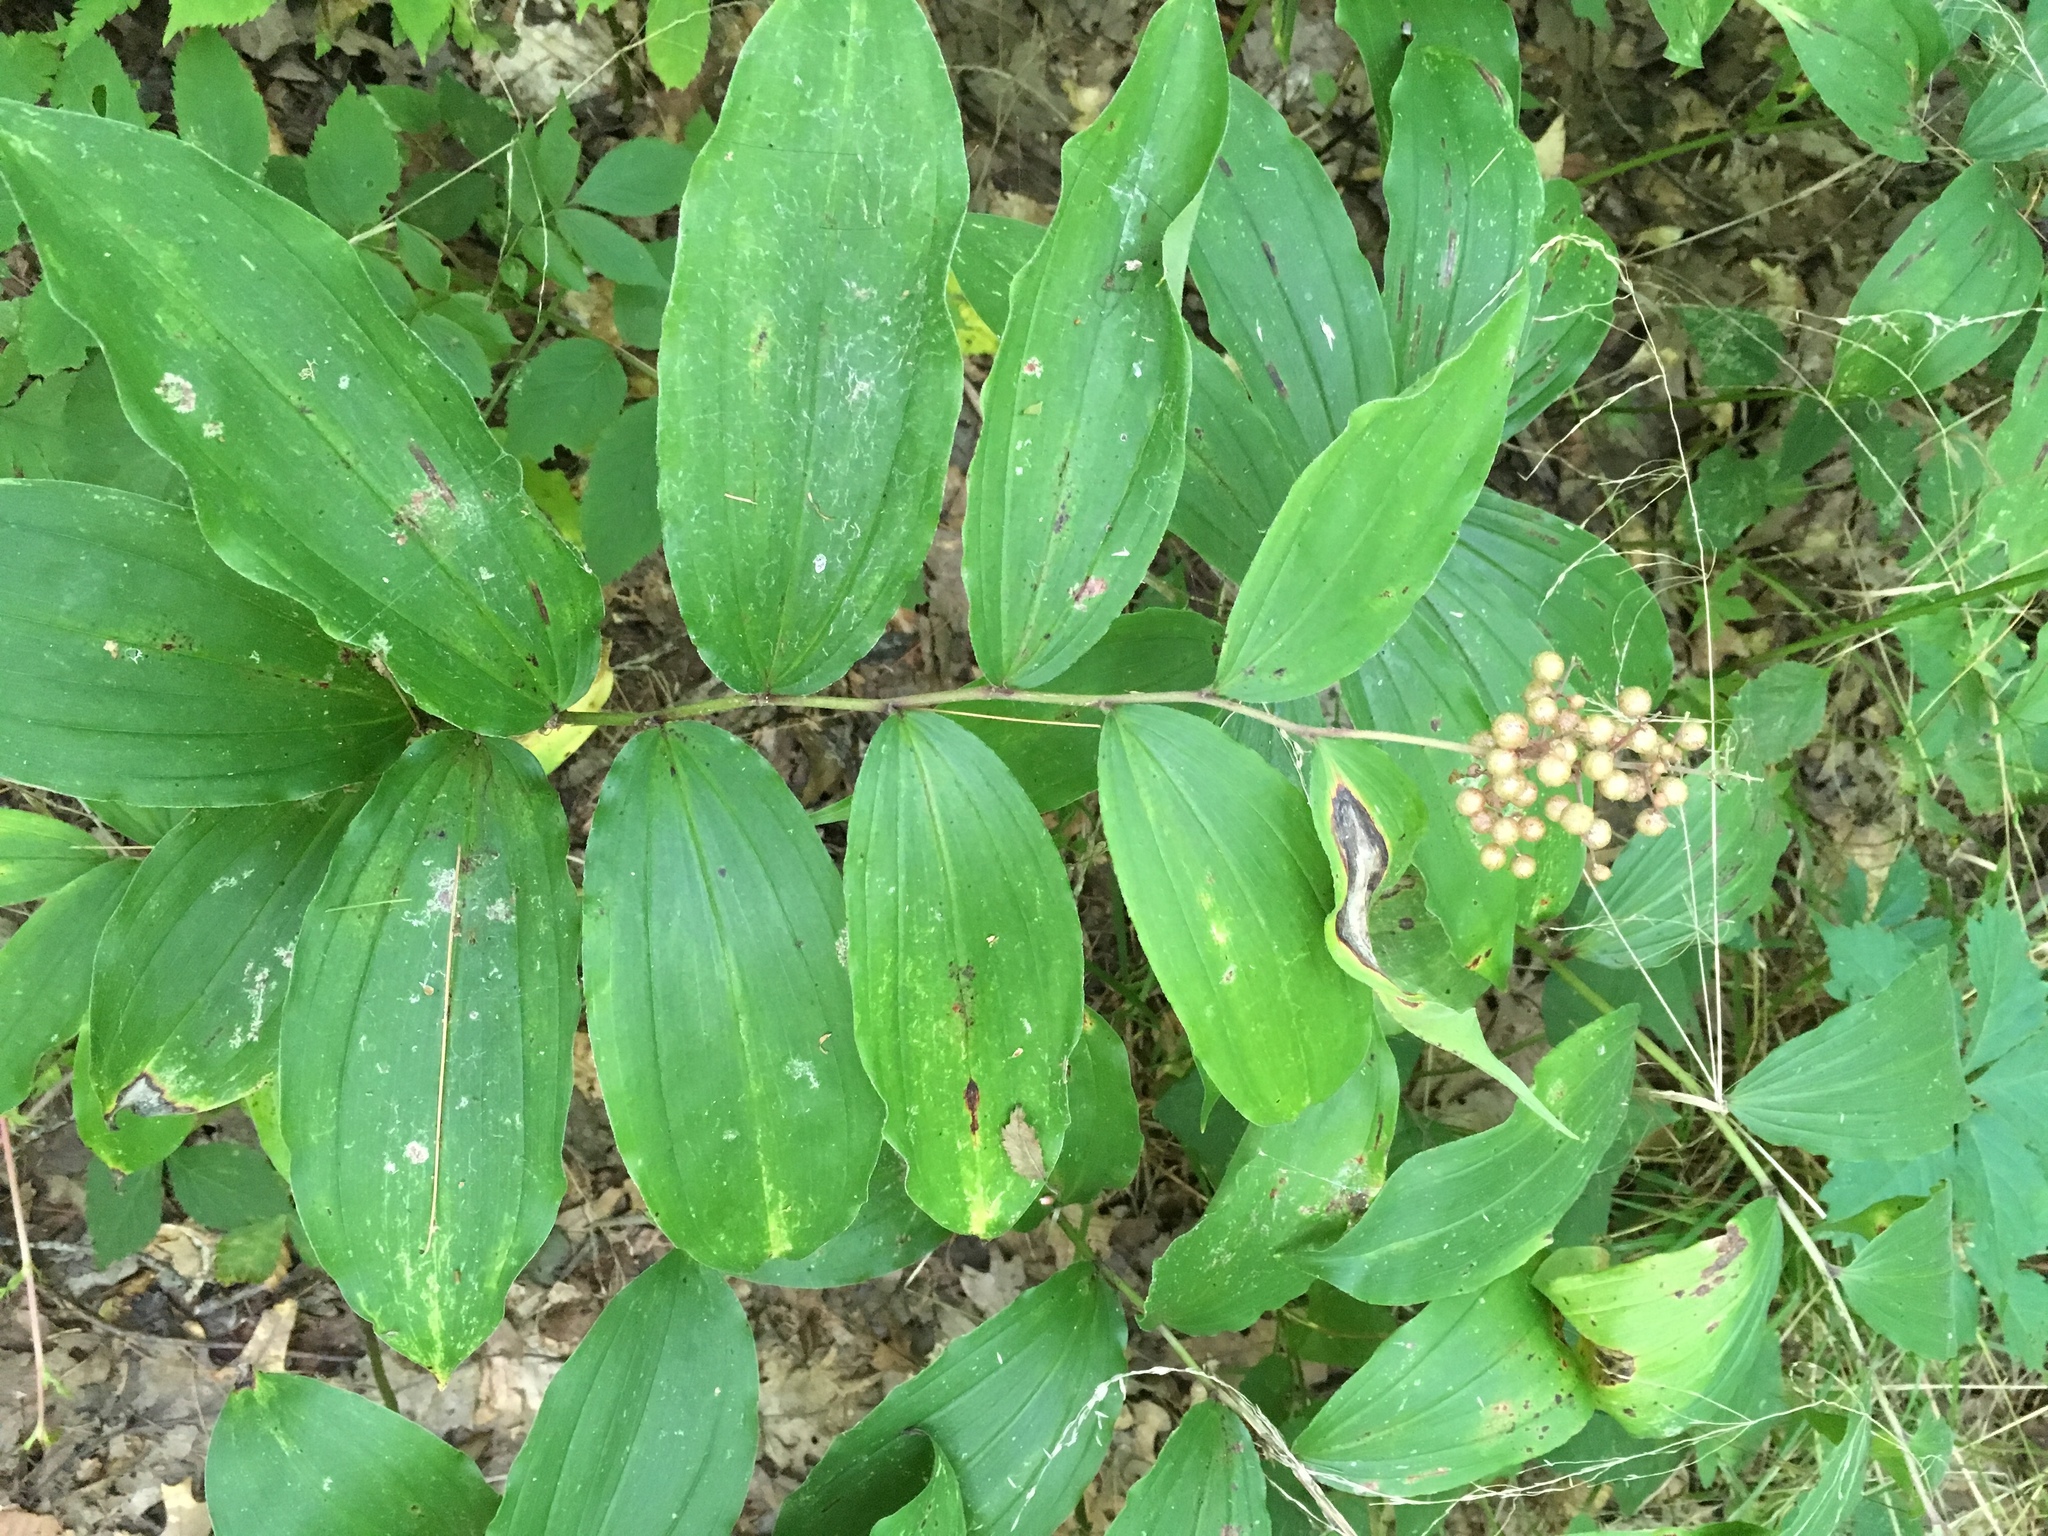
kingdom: Plantae
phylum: Tracheophyta
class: Liliopsida
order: Asparagales
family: Asparagaceae
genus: Maianthemum
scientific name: Maianthemum racemosum
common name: False spikenard
